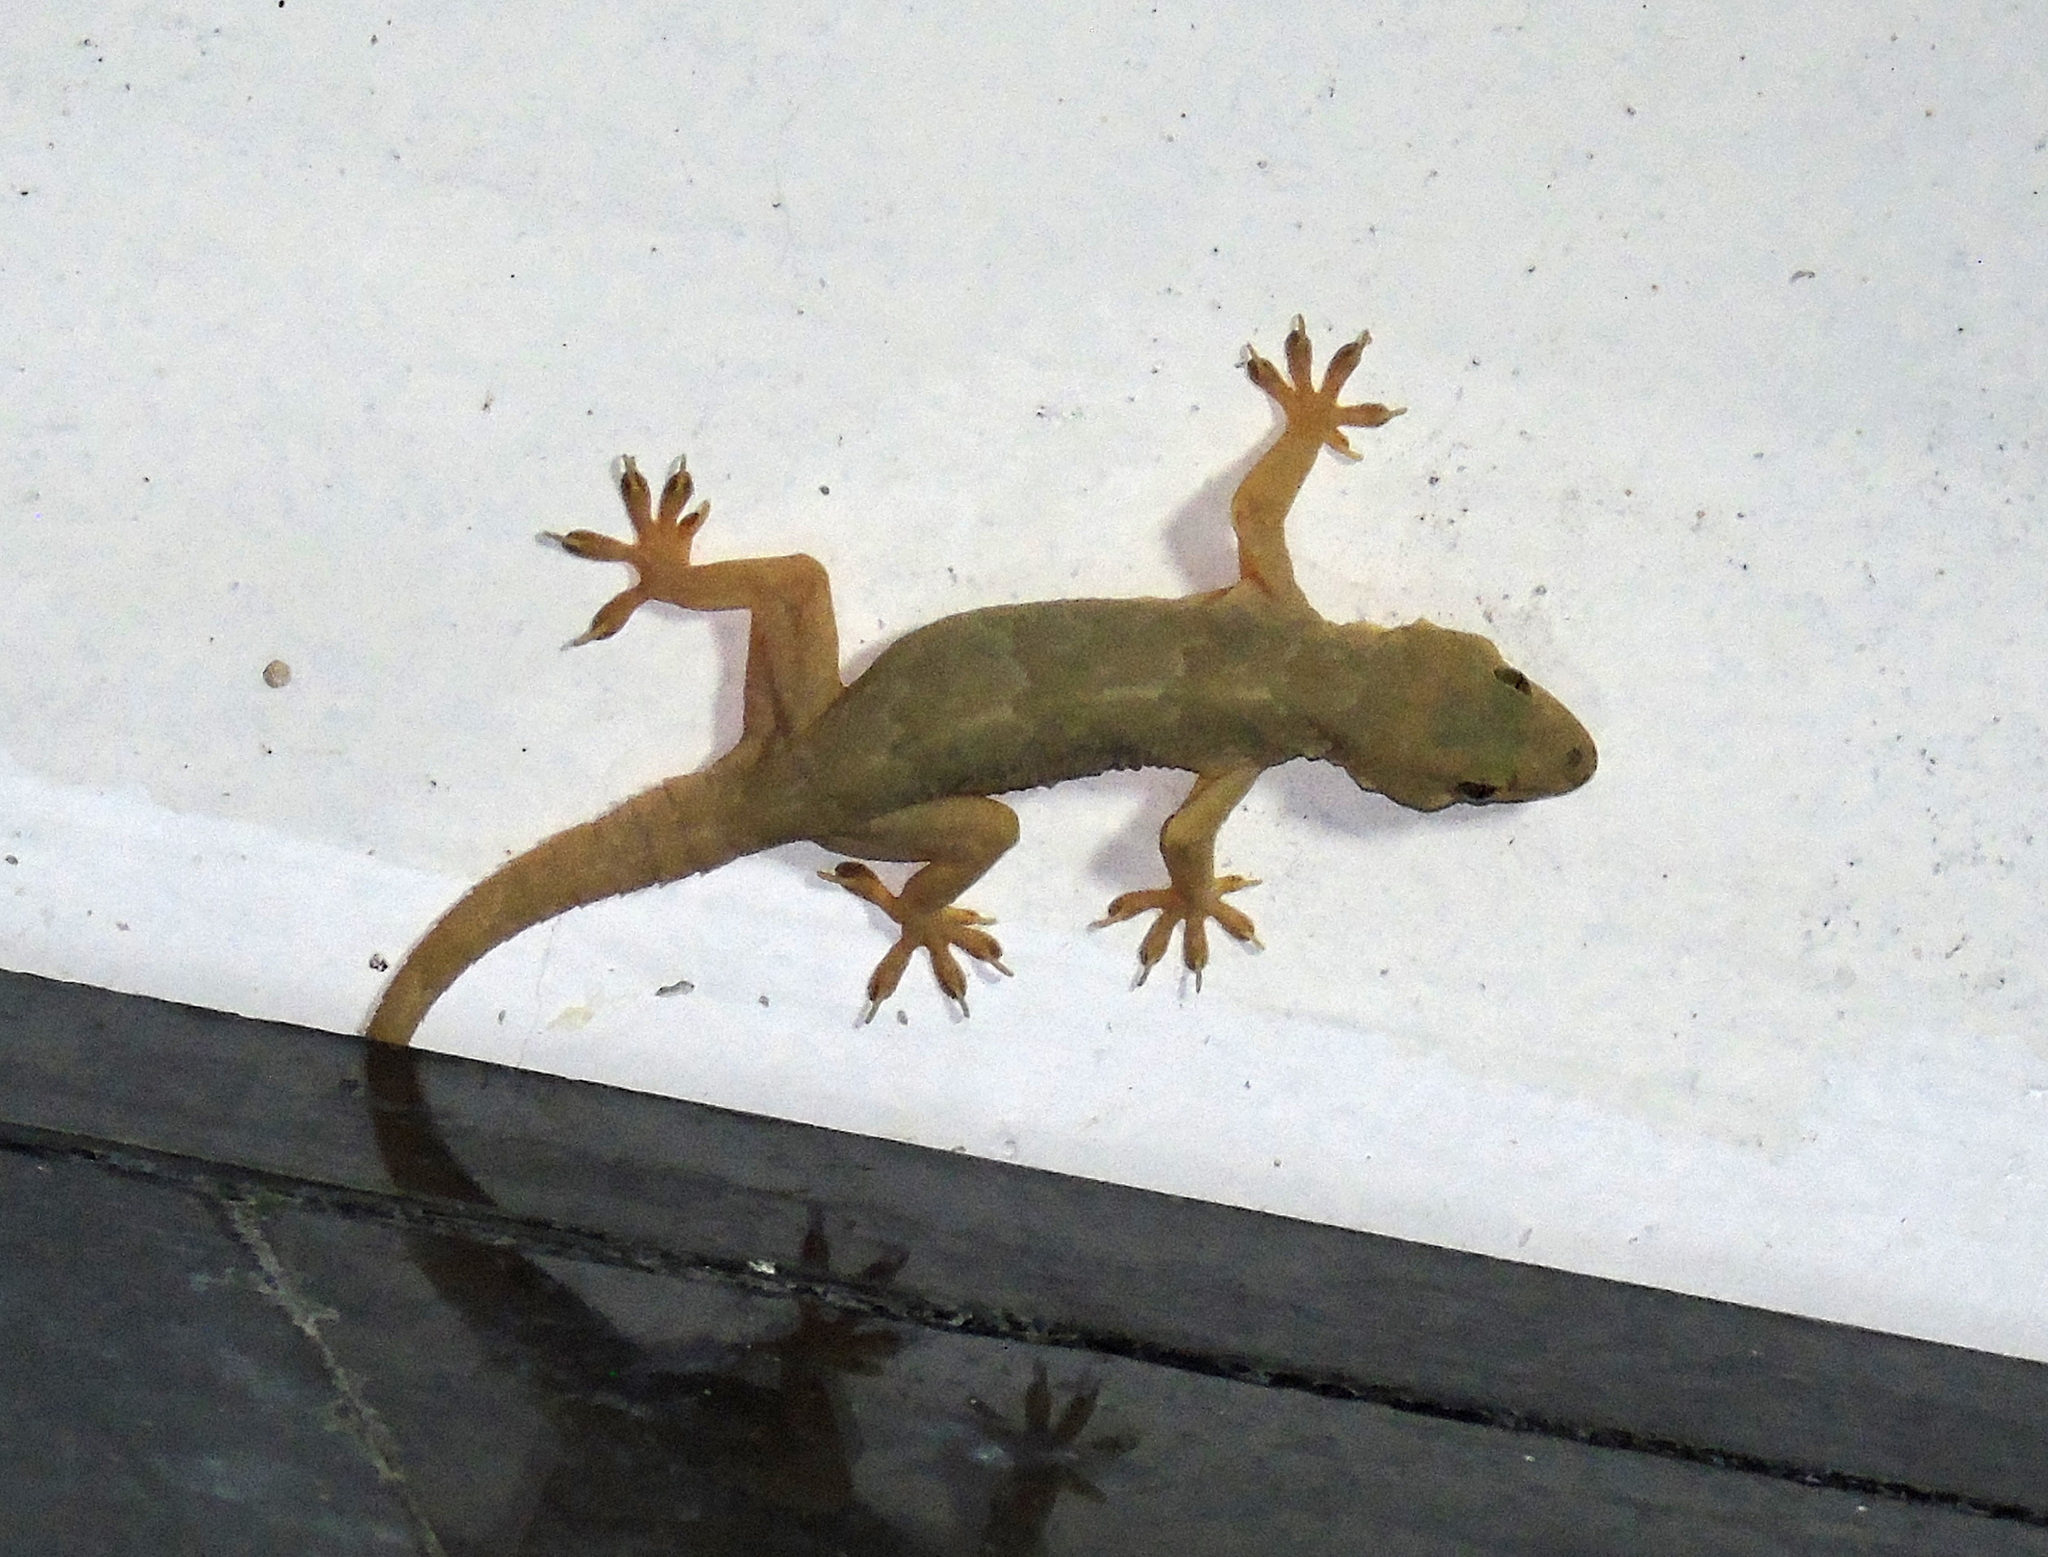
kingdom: Animalia
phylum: Chordata
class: Squamata
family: Gekkonidae
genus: Hemidactylus
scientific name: Hemidactylus flaviviridis
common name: Northern house gecko
